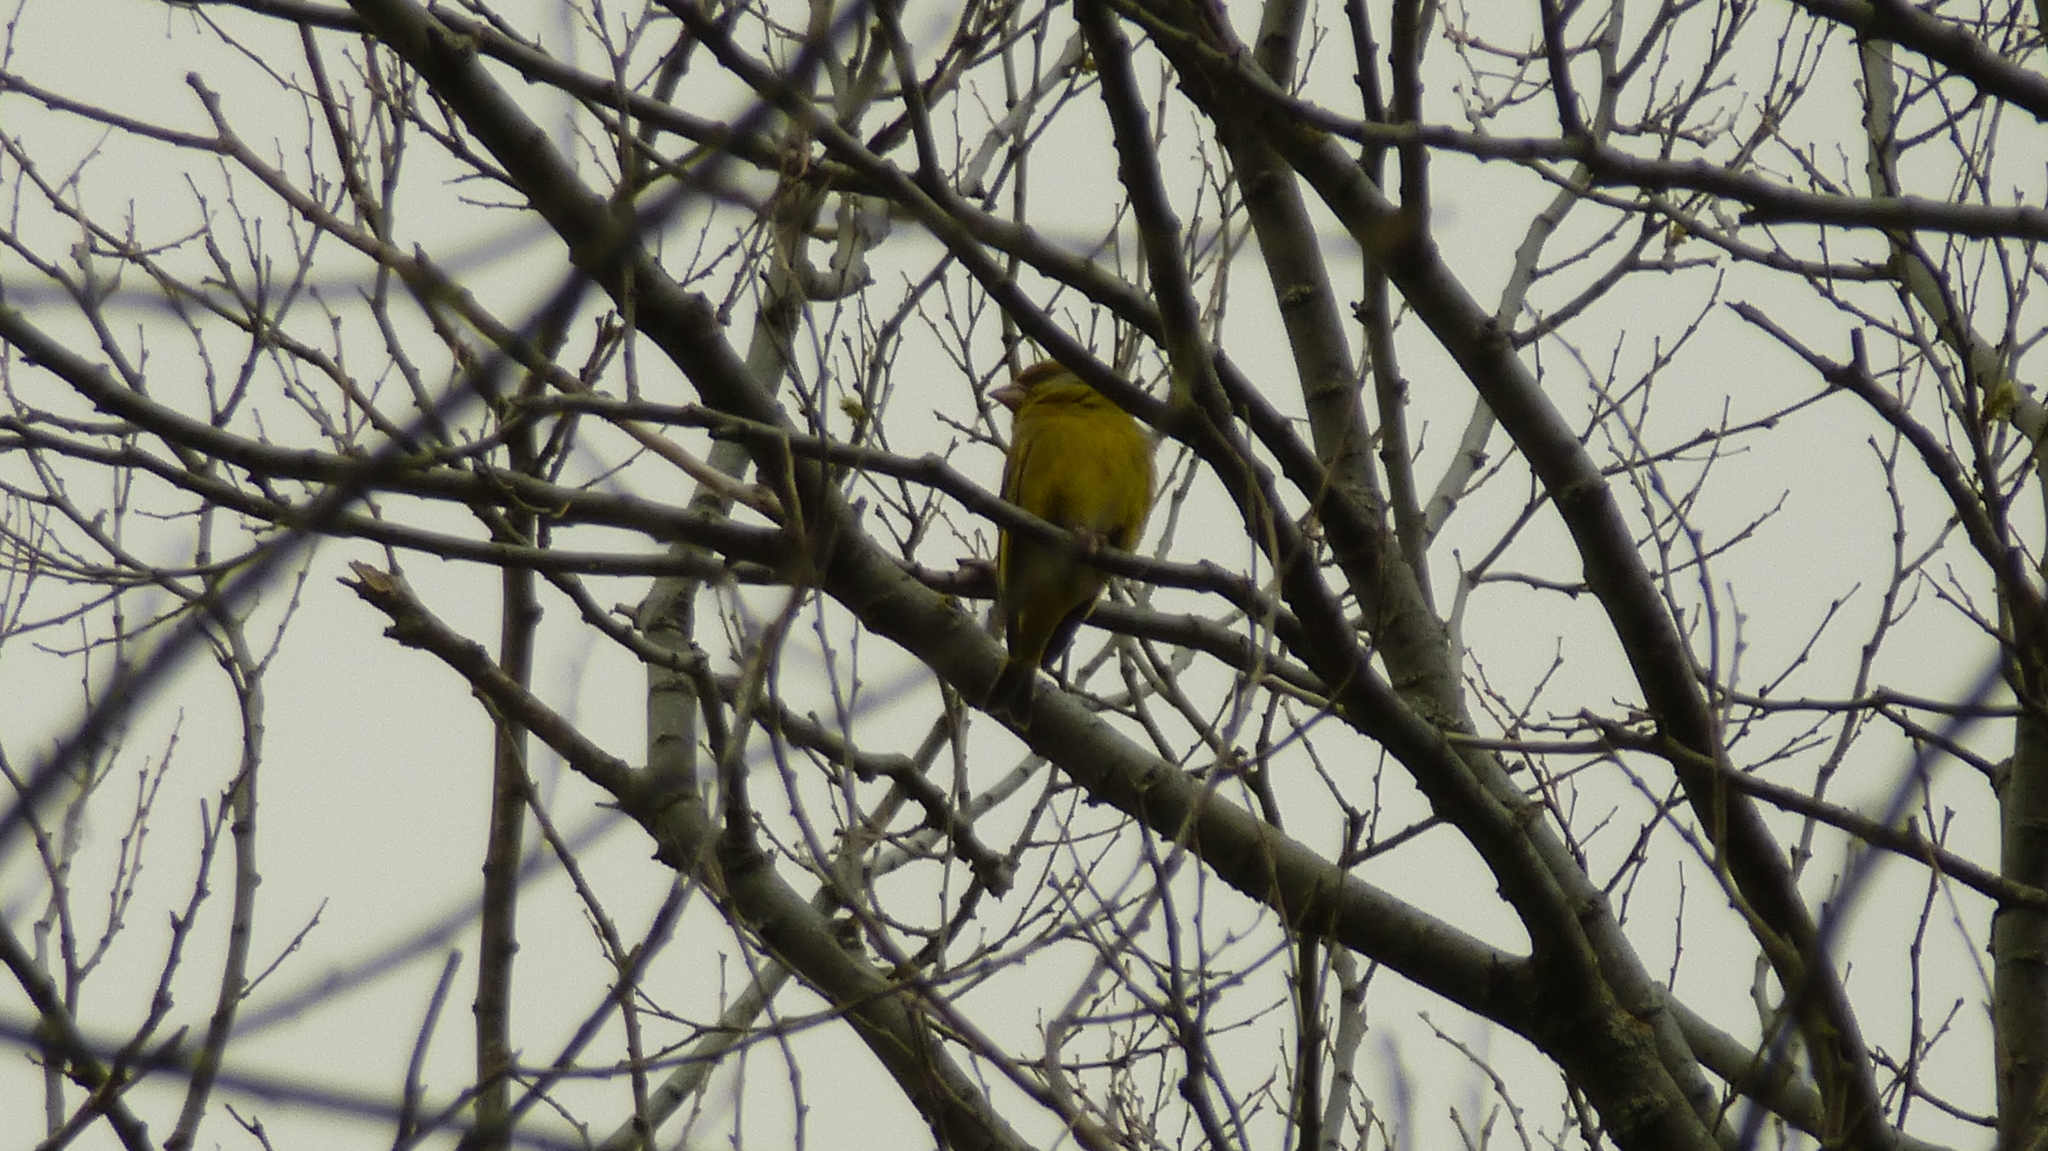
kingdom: Plantae
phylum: Tracheophyta
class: Liliopsida
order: Poales
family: Poaceae
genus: Chloris
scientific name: Chloris chloris
